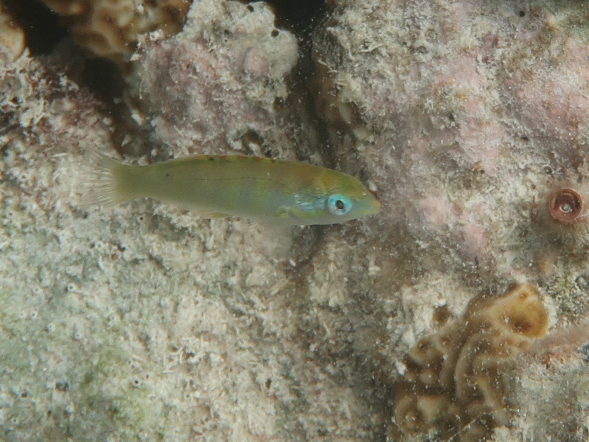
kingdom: Animalia
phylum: Chordata
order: Perciformes
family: Labridae
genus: Thalassoma
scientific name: Thalassoma hardwicke
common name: Sixbar wrasse
